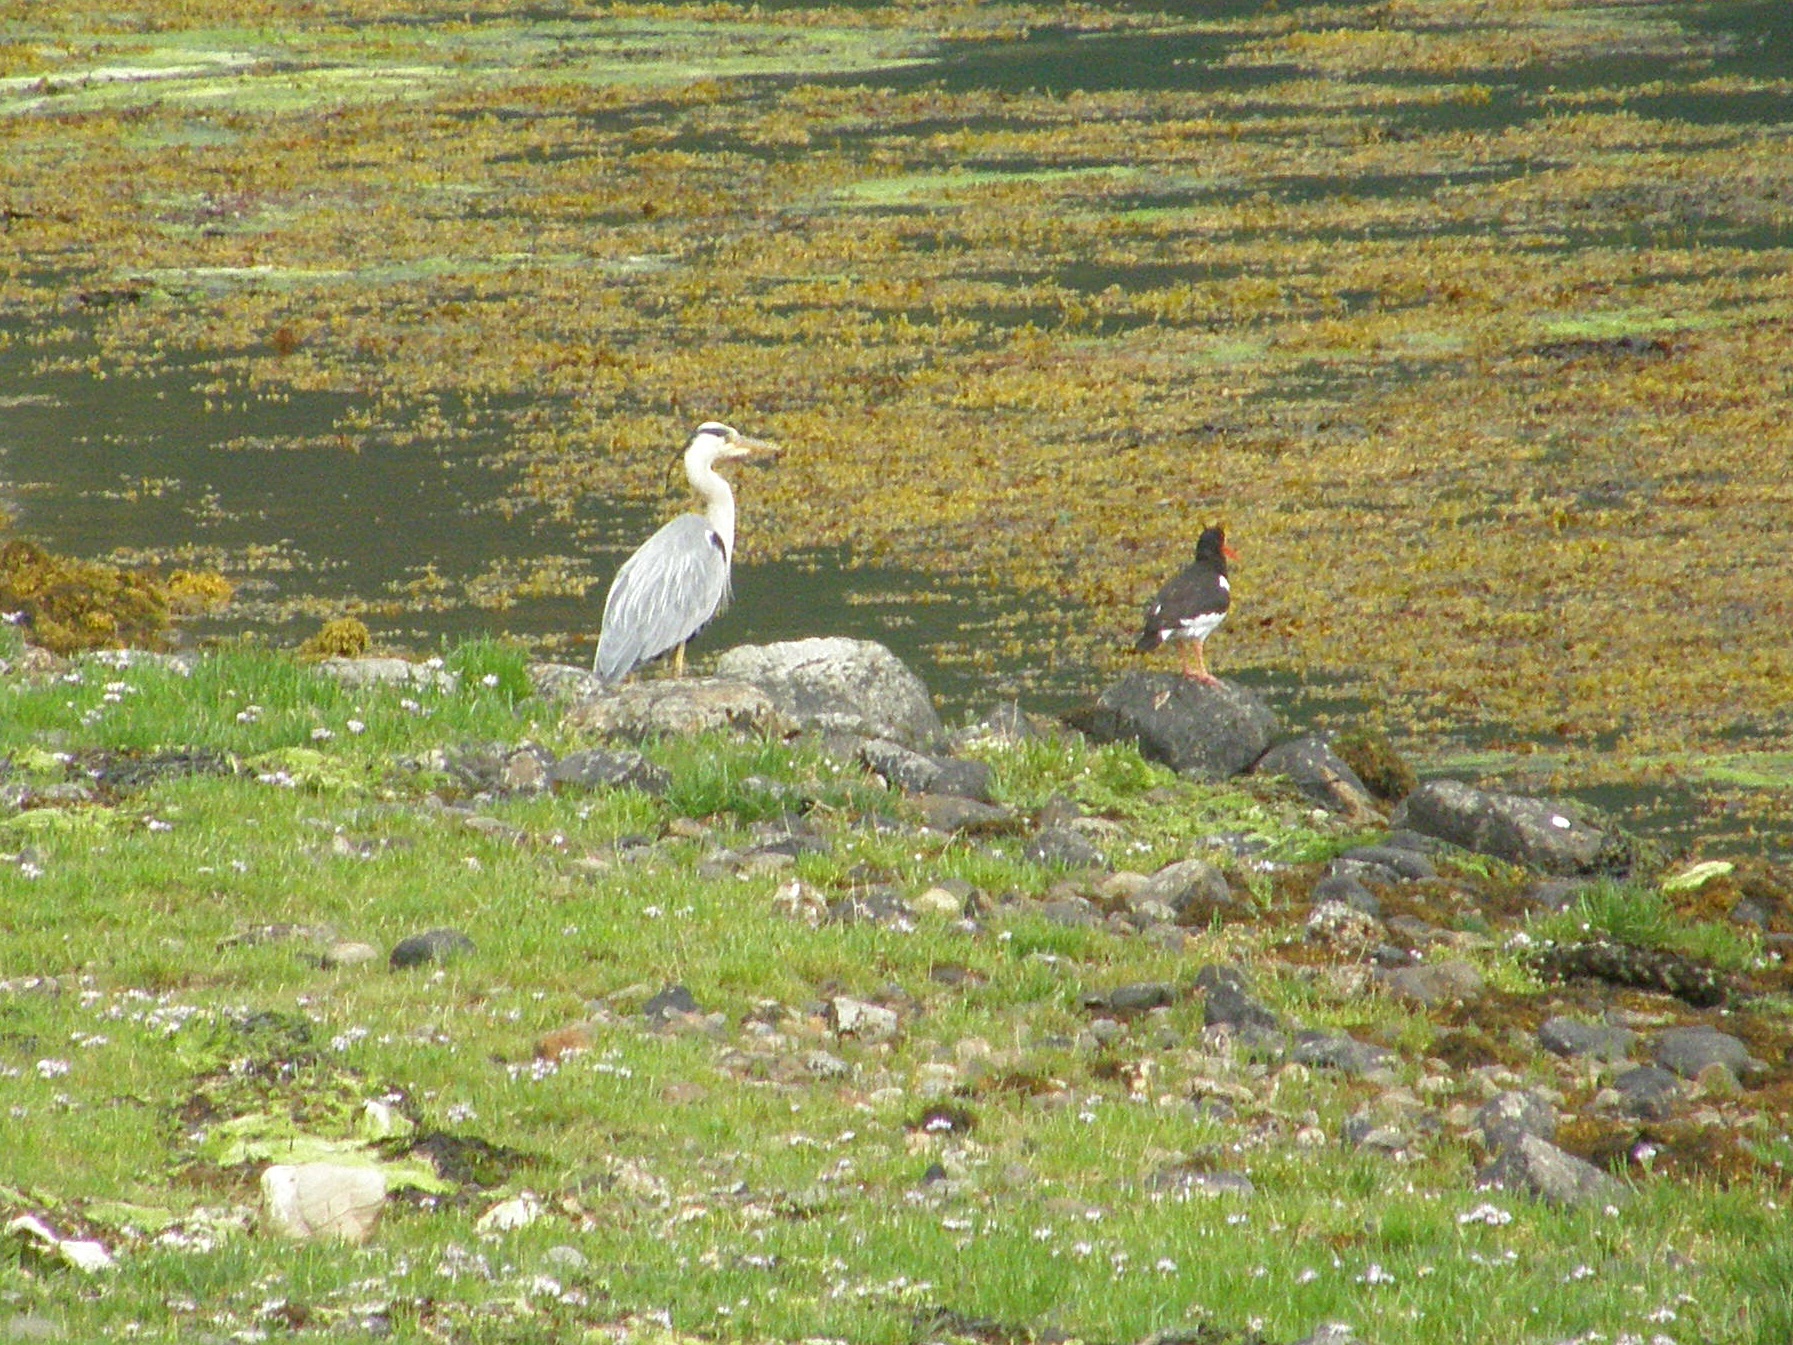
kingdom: Animalia
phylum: Chordata
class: Aves
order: Pelecaniformes
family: Ardeidae
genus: Ardea
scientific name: Ardea cinerea
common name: Grey heron
